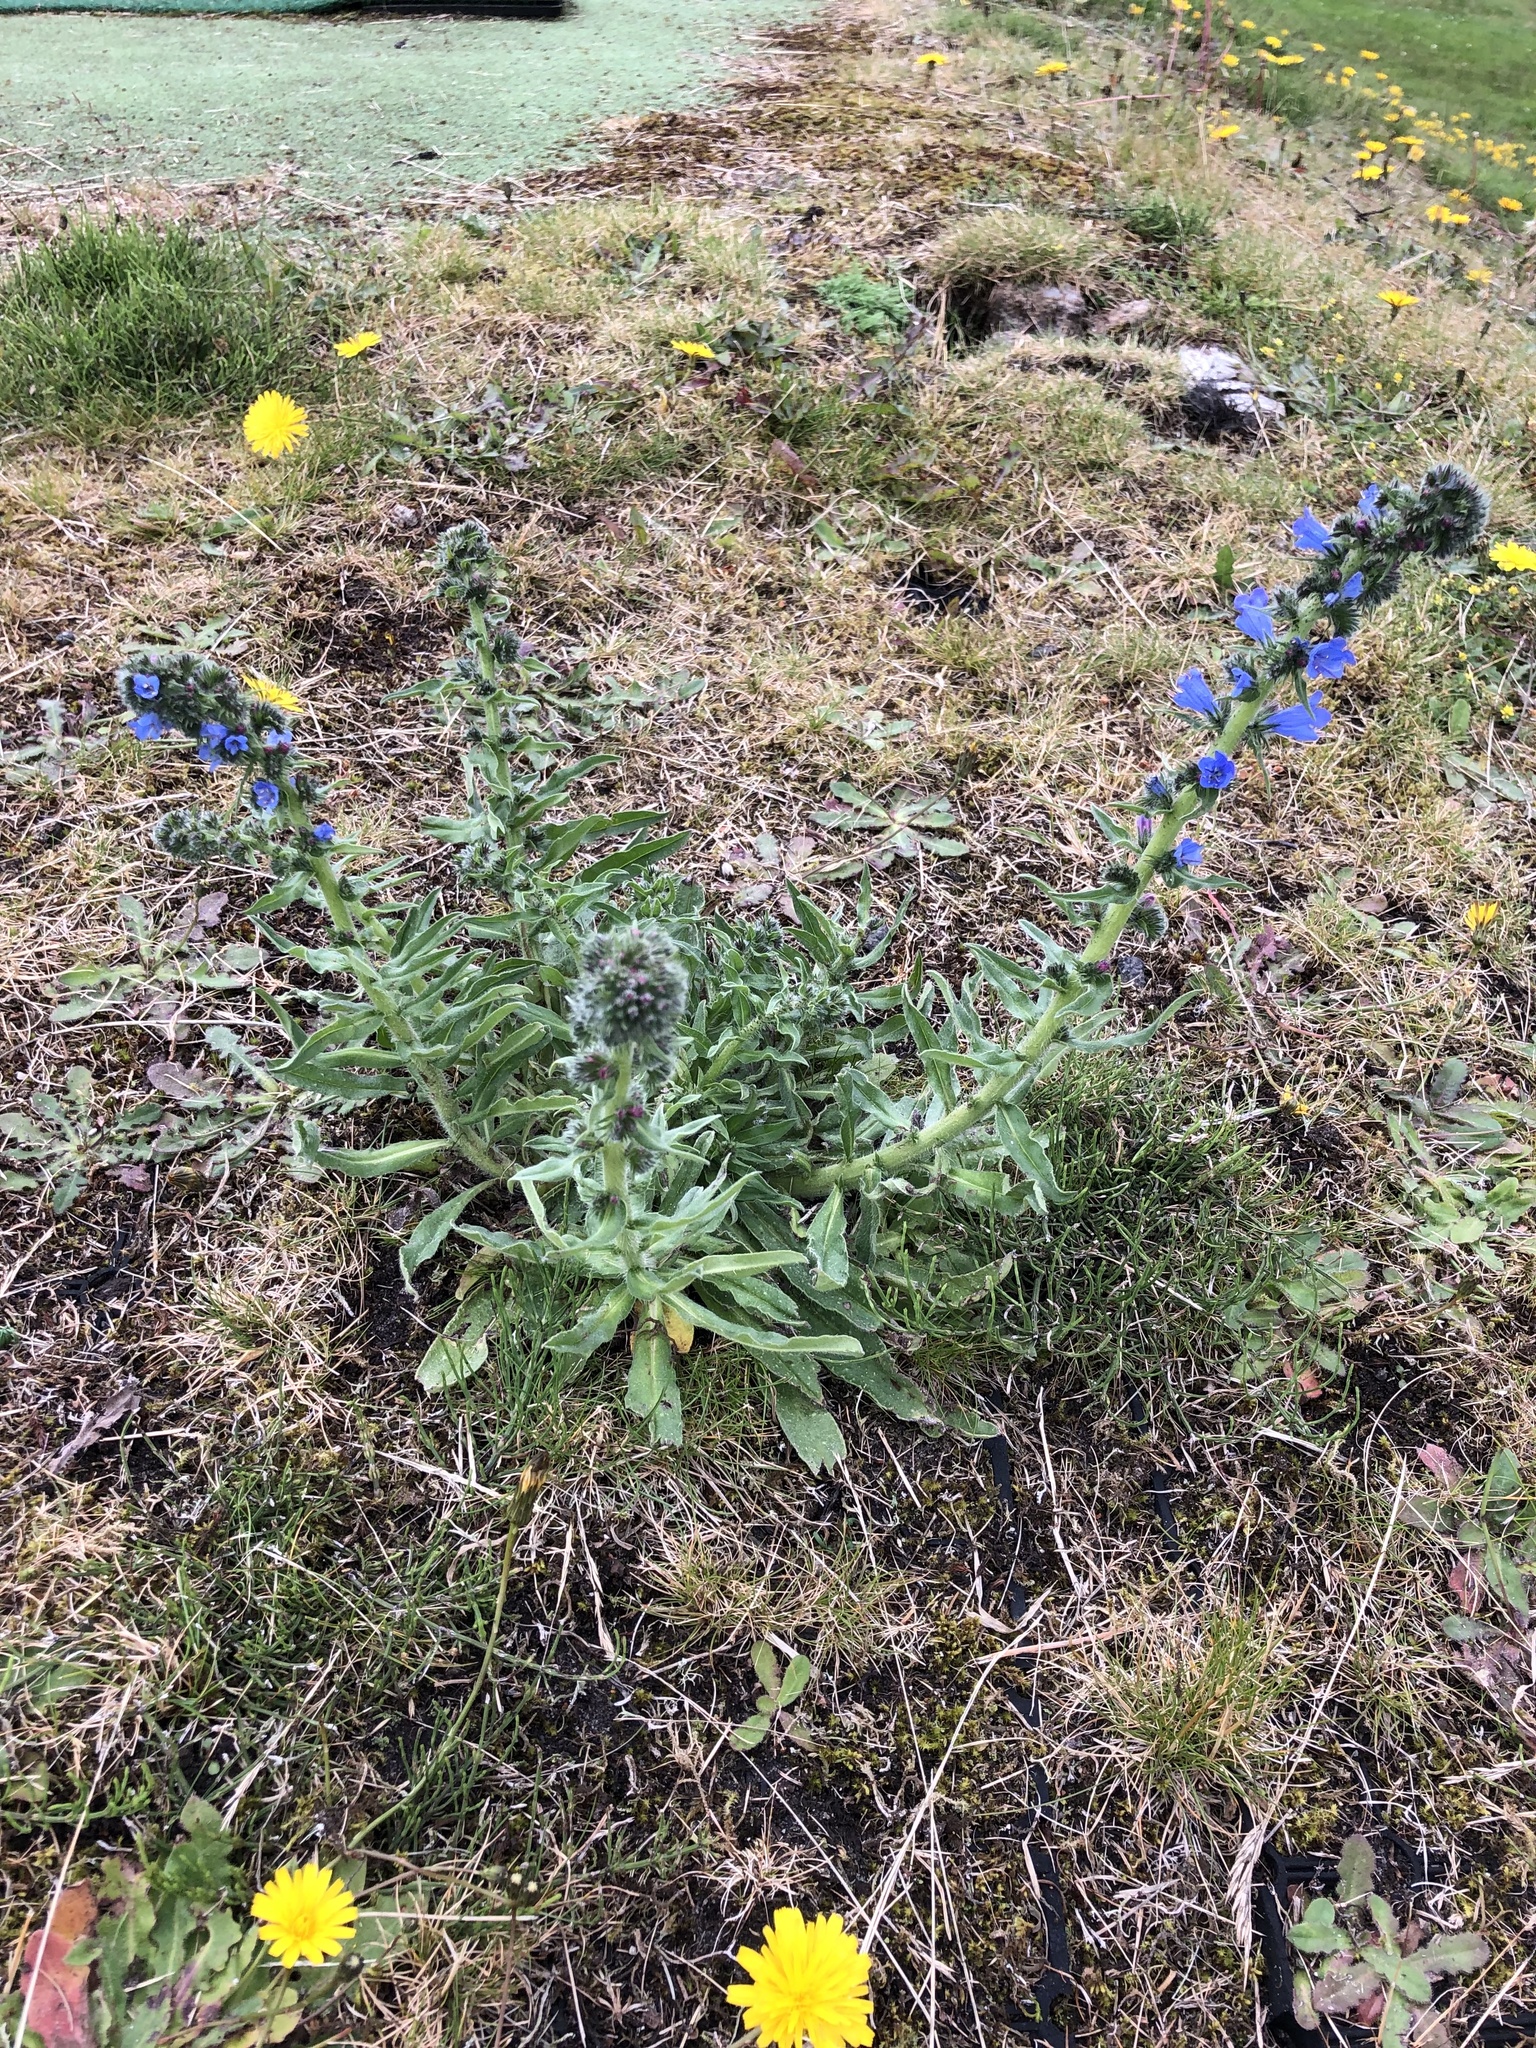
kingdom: Plantae
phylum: Tracheophyta
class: Magnoliopsida
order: Boraginales
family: Boraginaceae
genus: Echium
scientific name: Echium vulgare
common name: Common viper's bugloss
